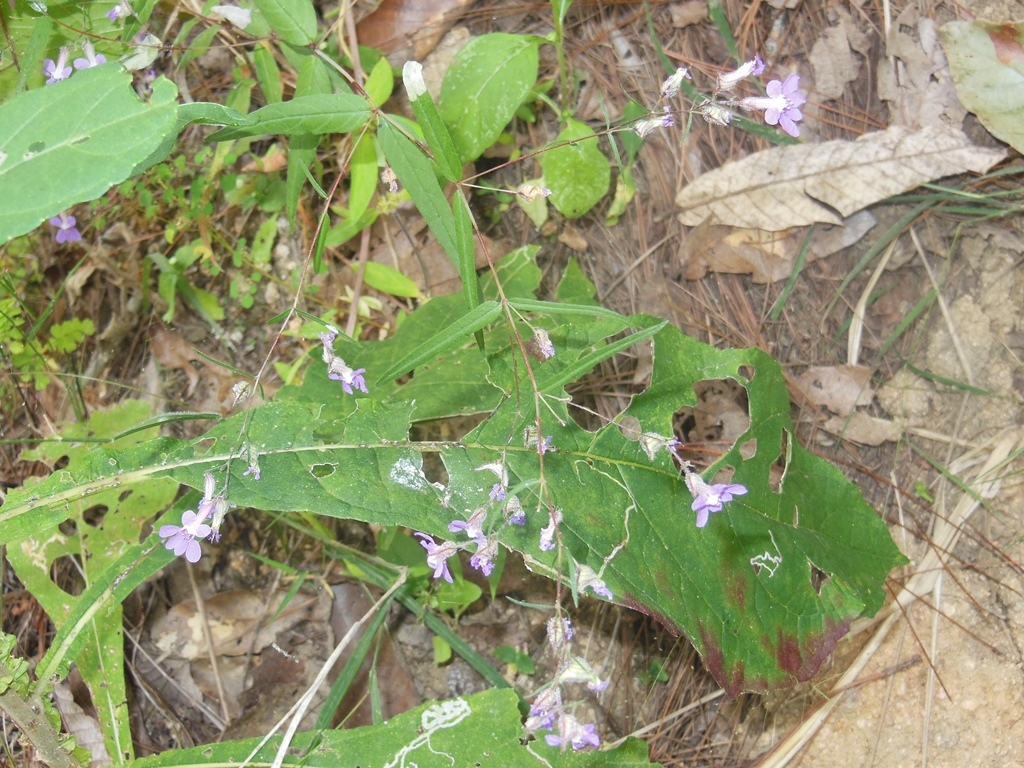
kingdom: Plantae
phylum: Tracheophyta
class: Magnoliopsida
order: Myrtales
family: Lythraceae
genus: Cuphea
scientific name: Cuphea empetrifolia
